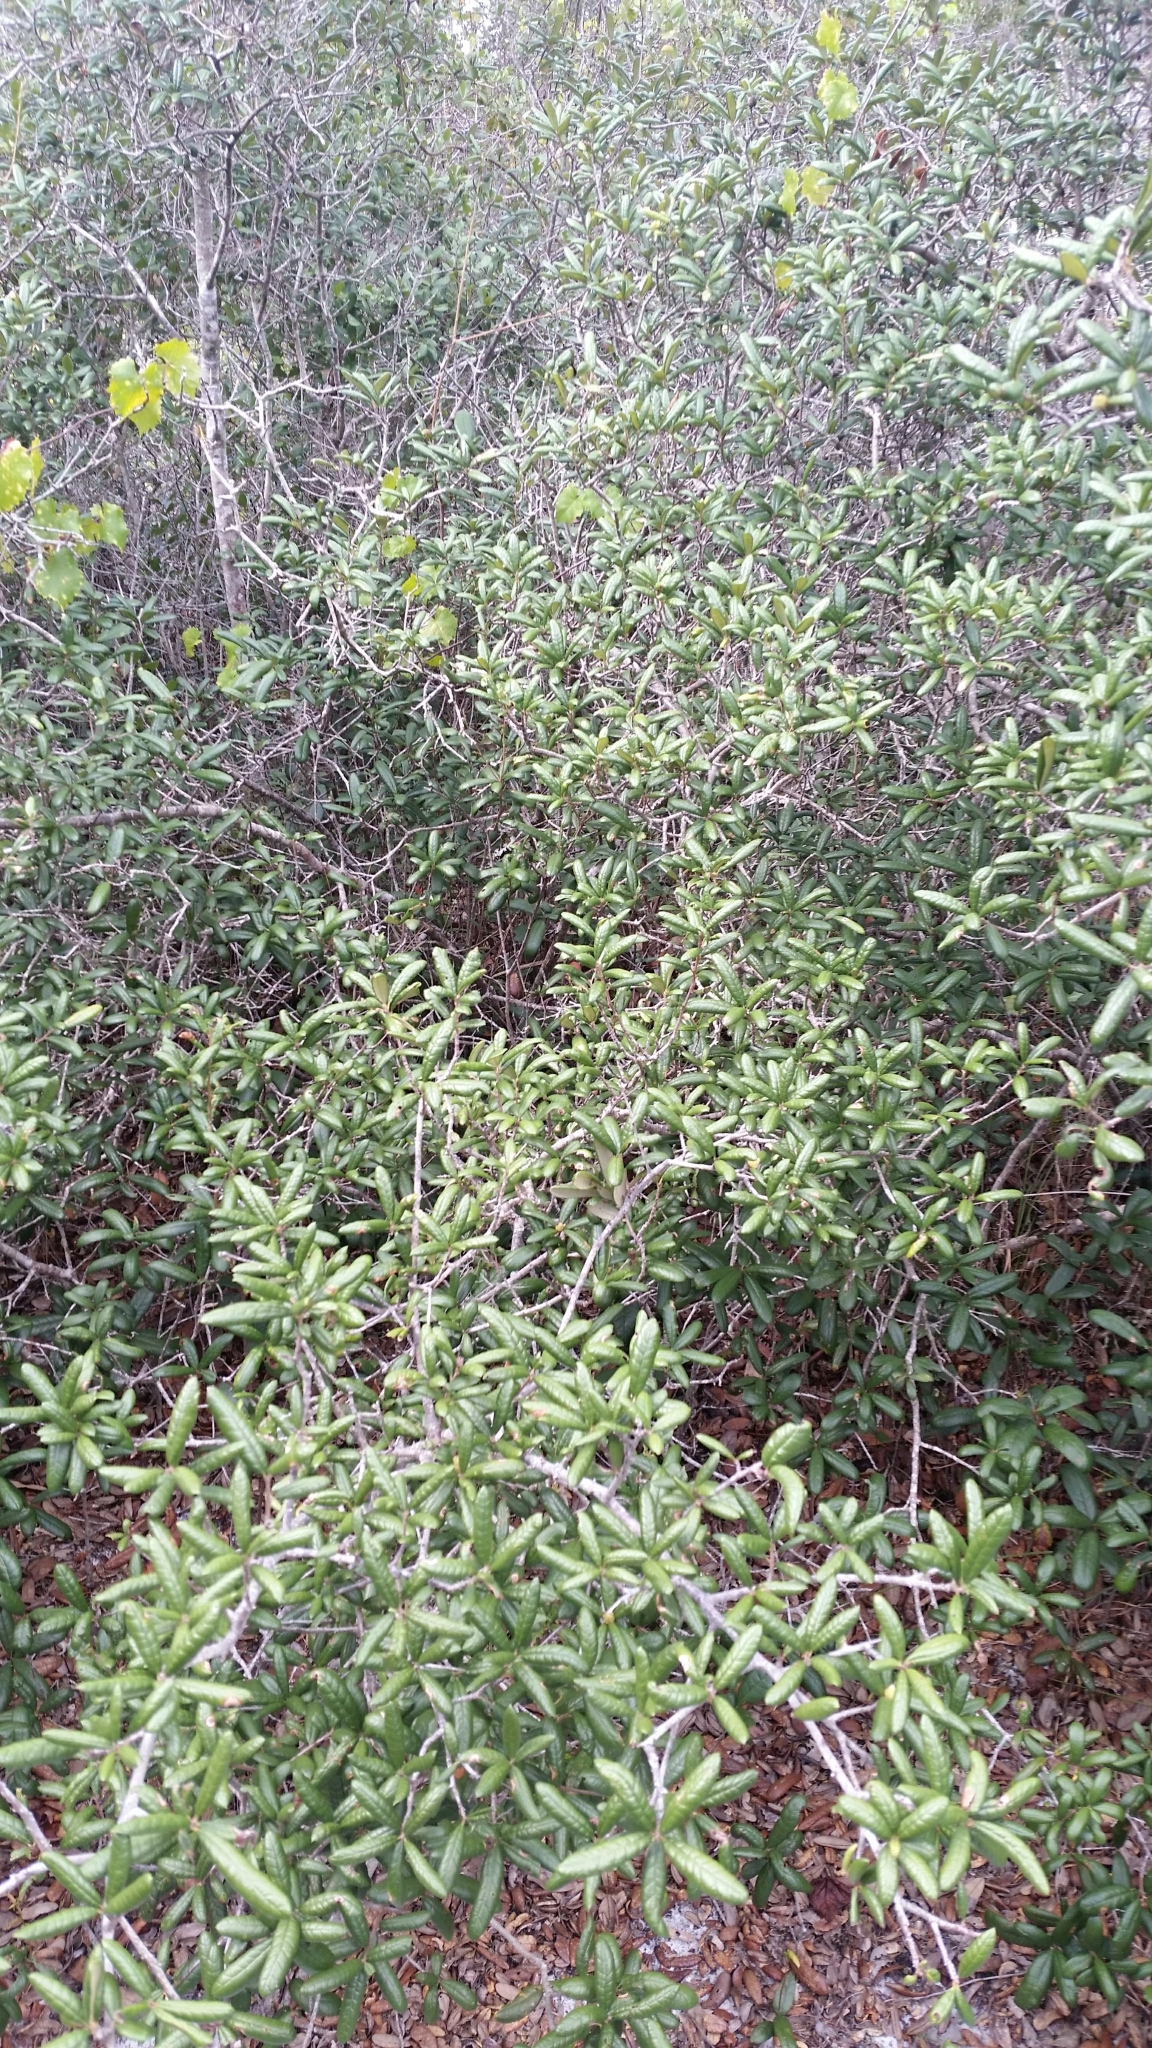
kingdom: Plantae
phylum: Tracheophyta
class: Magnoliopsida
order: Fagales
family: Fagaceae
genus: Quercus
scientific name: Quercus geminata
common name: Sand live oak
